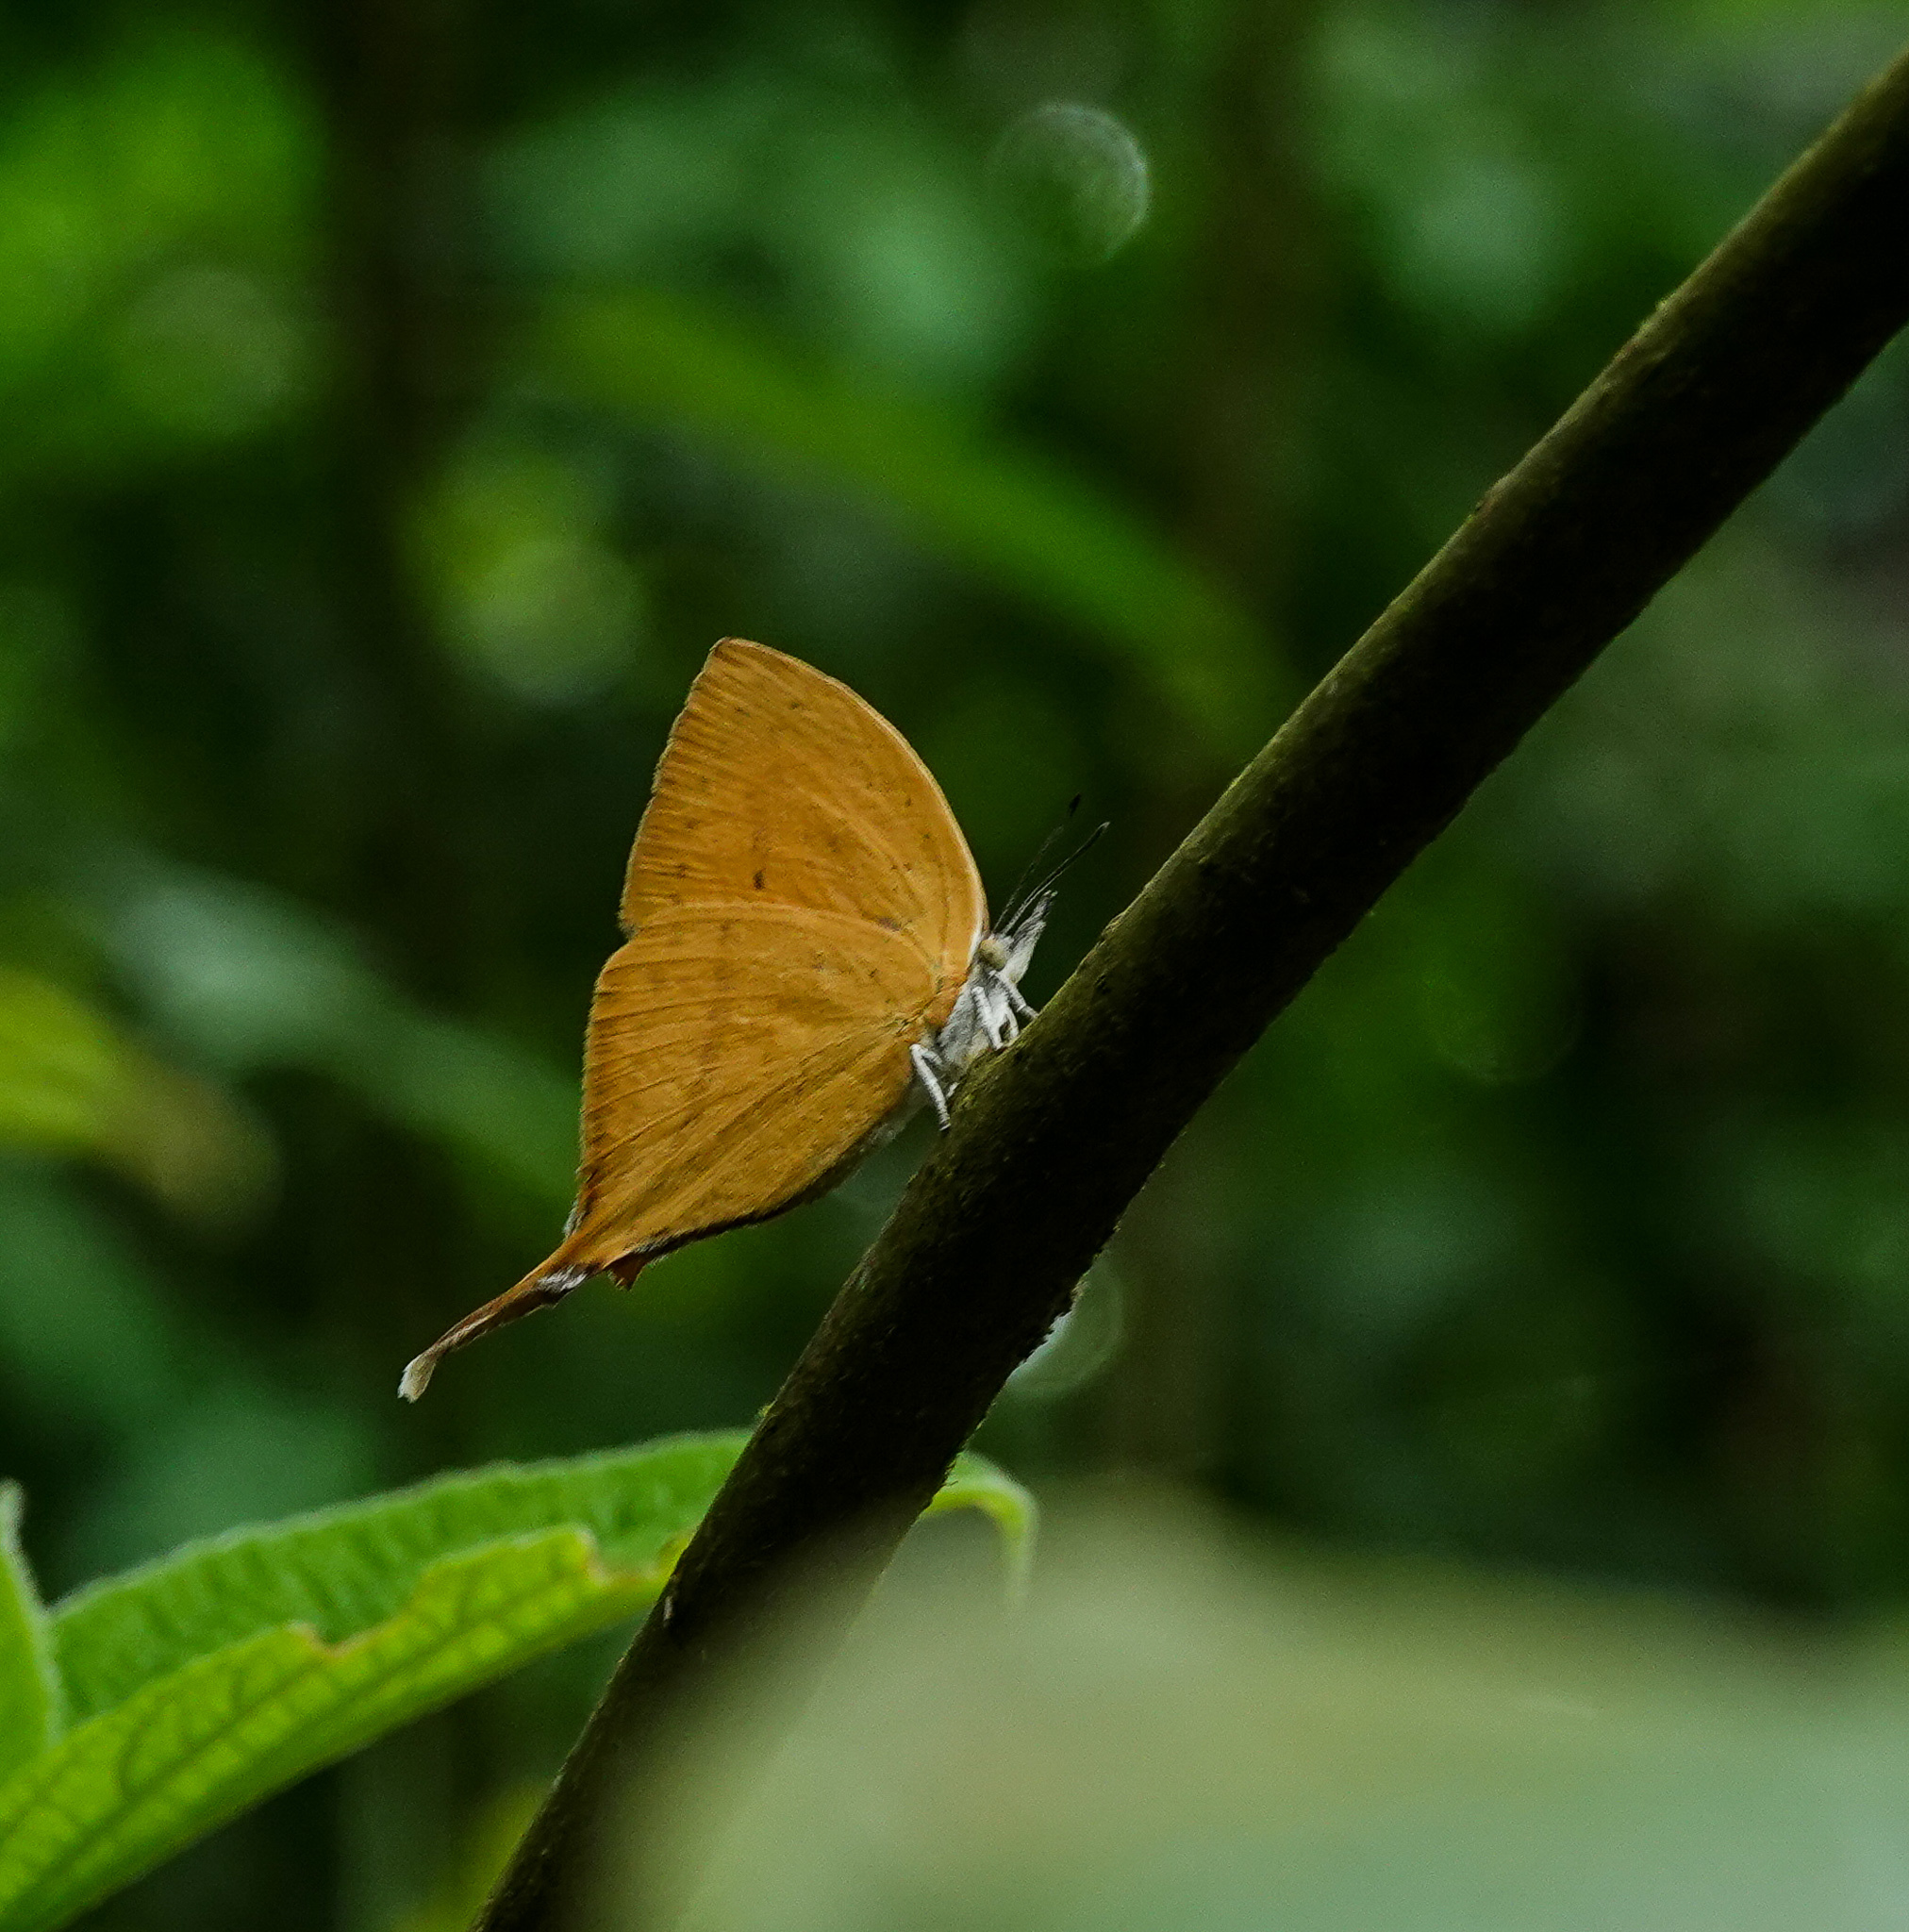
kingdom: Animalia
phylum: Arthropoda
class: Insecta
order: Lepidoptera
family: Lycaenidae
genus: Loxura
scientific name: Loxura atymnus
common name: Common yamfly
